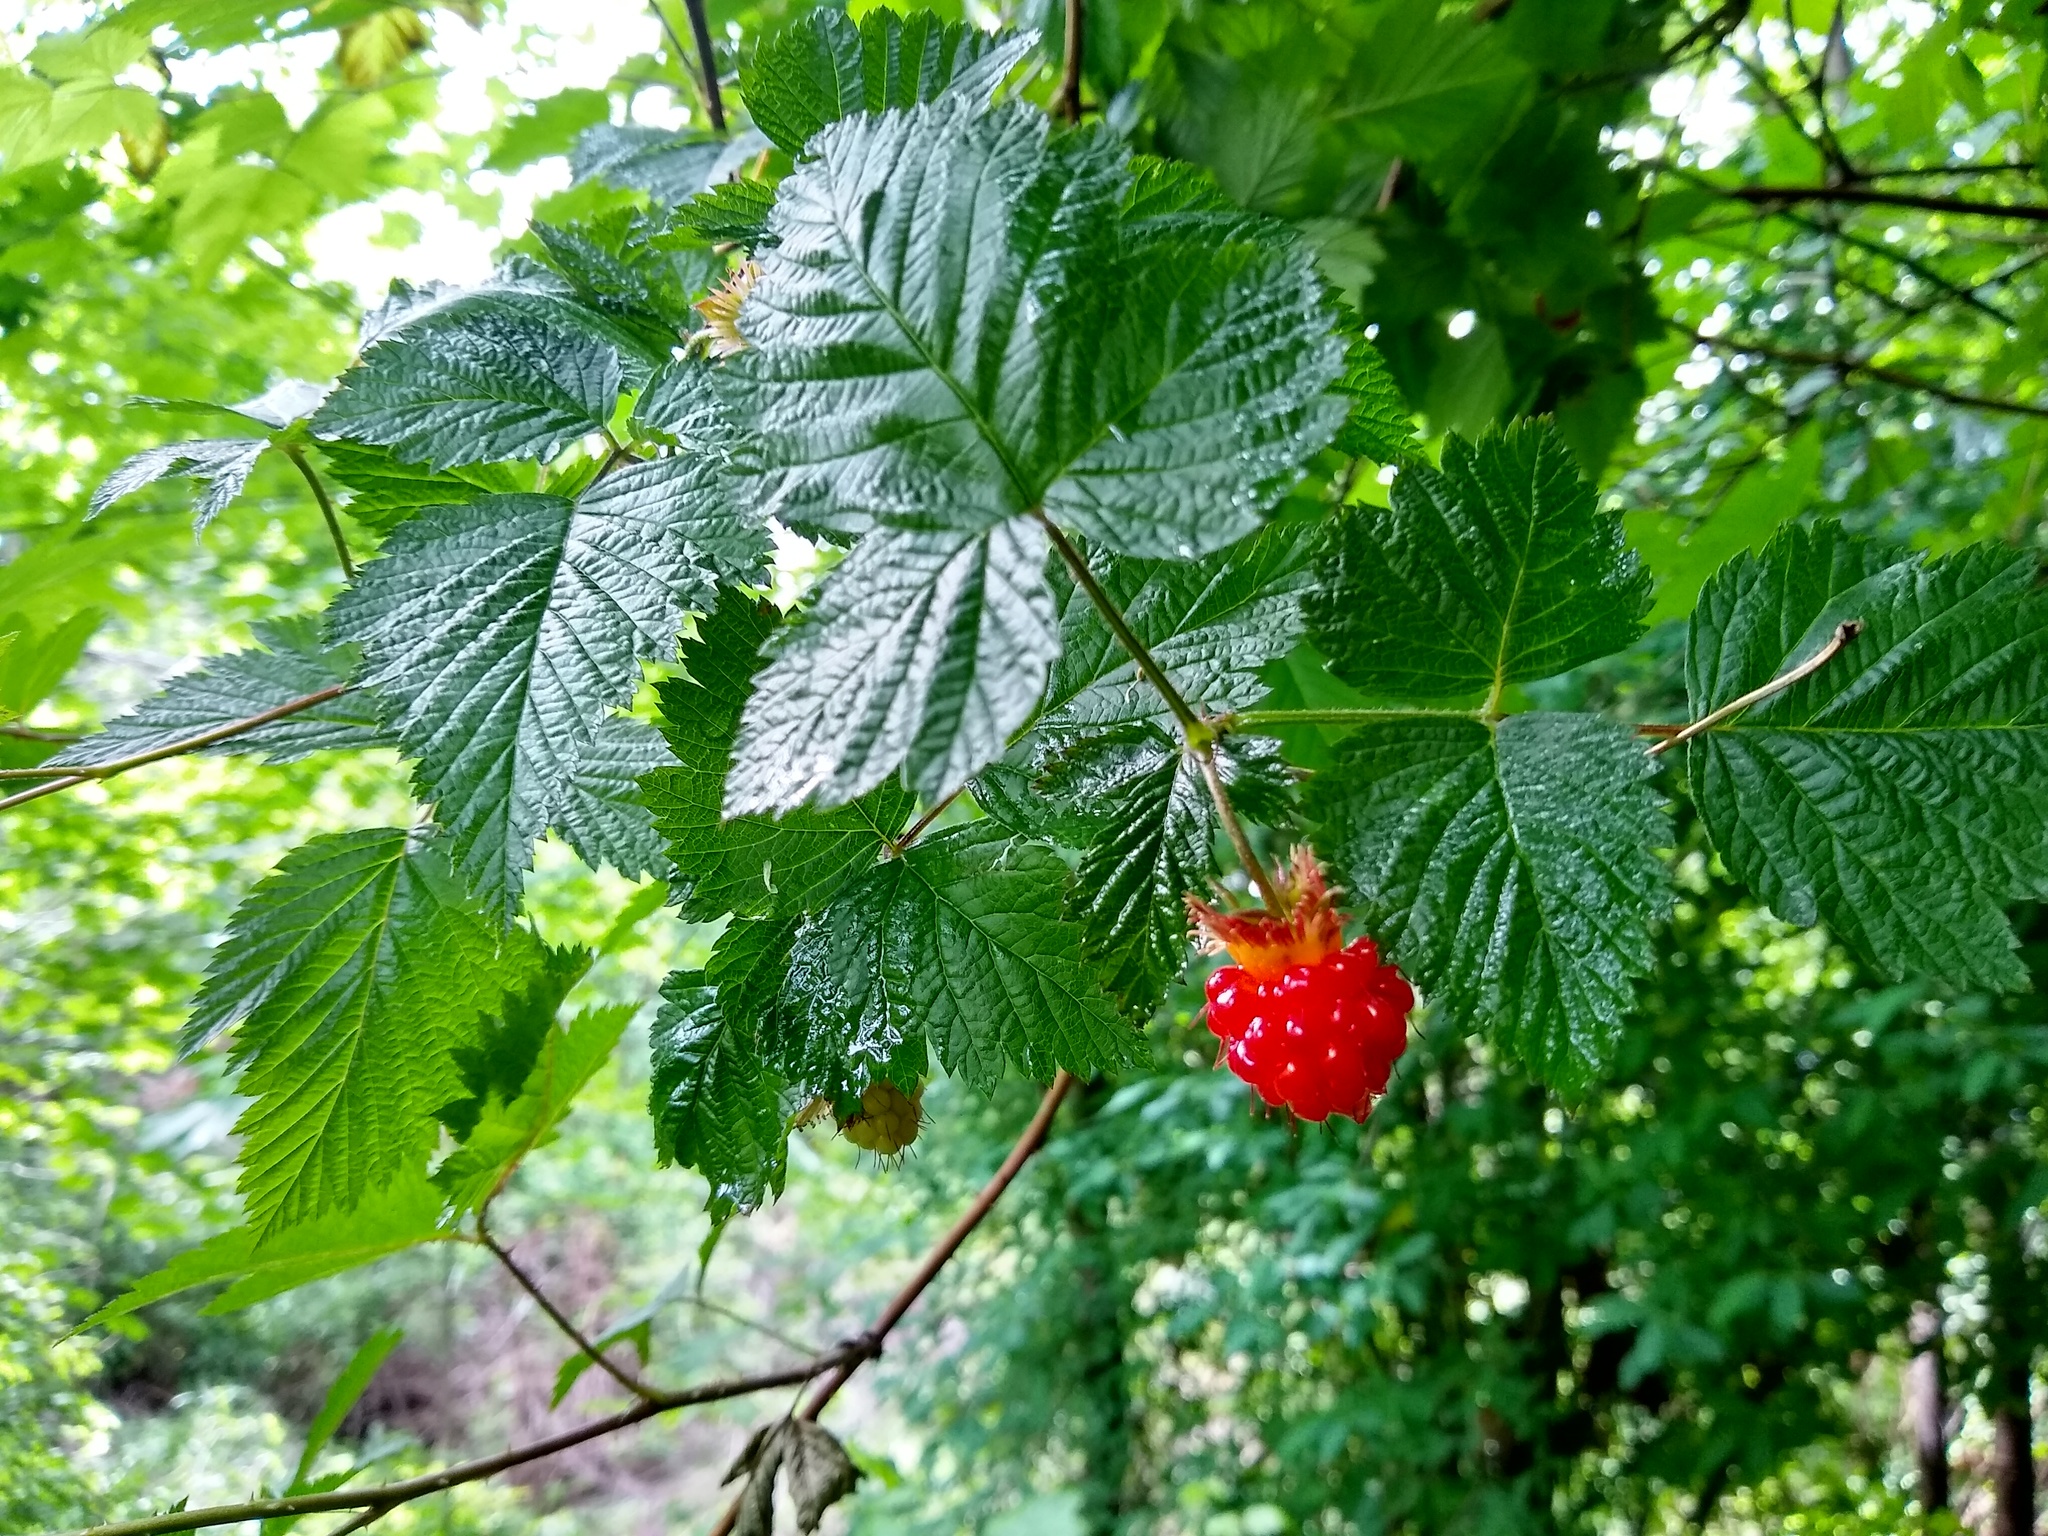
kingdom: Plantae
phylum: Tracheophyta
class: Magnoliopsida
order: Rosales
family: Rosaceae
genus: Rubus
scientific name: Rubus spectabilis
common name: Salmonberry
